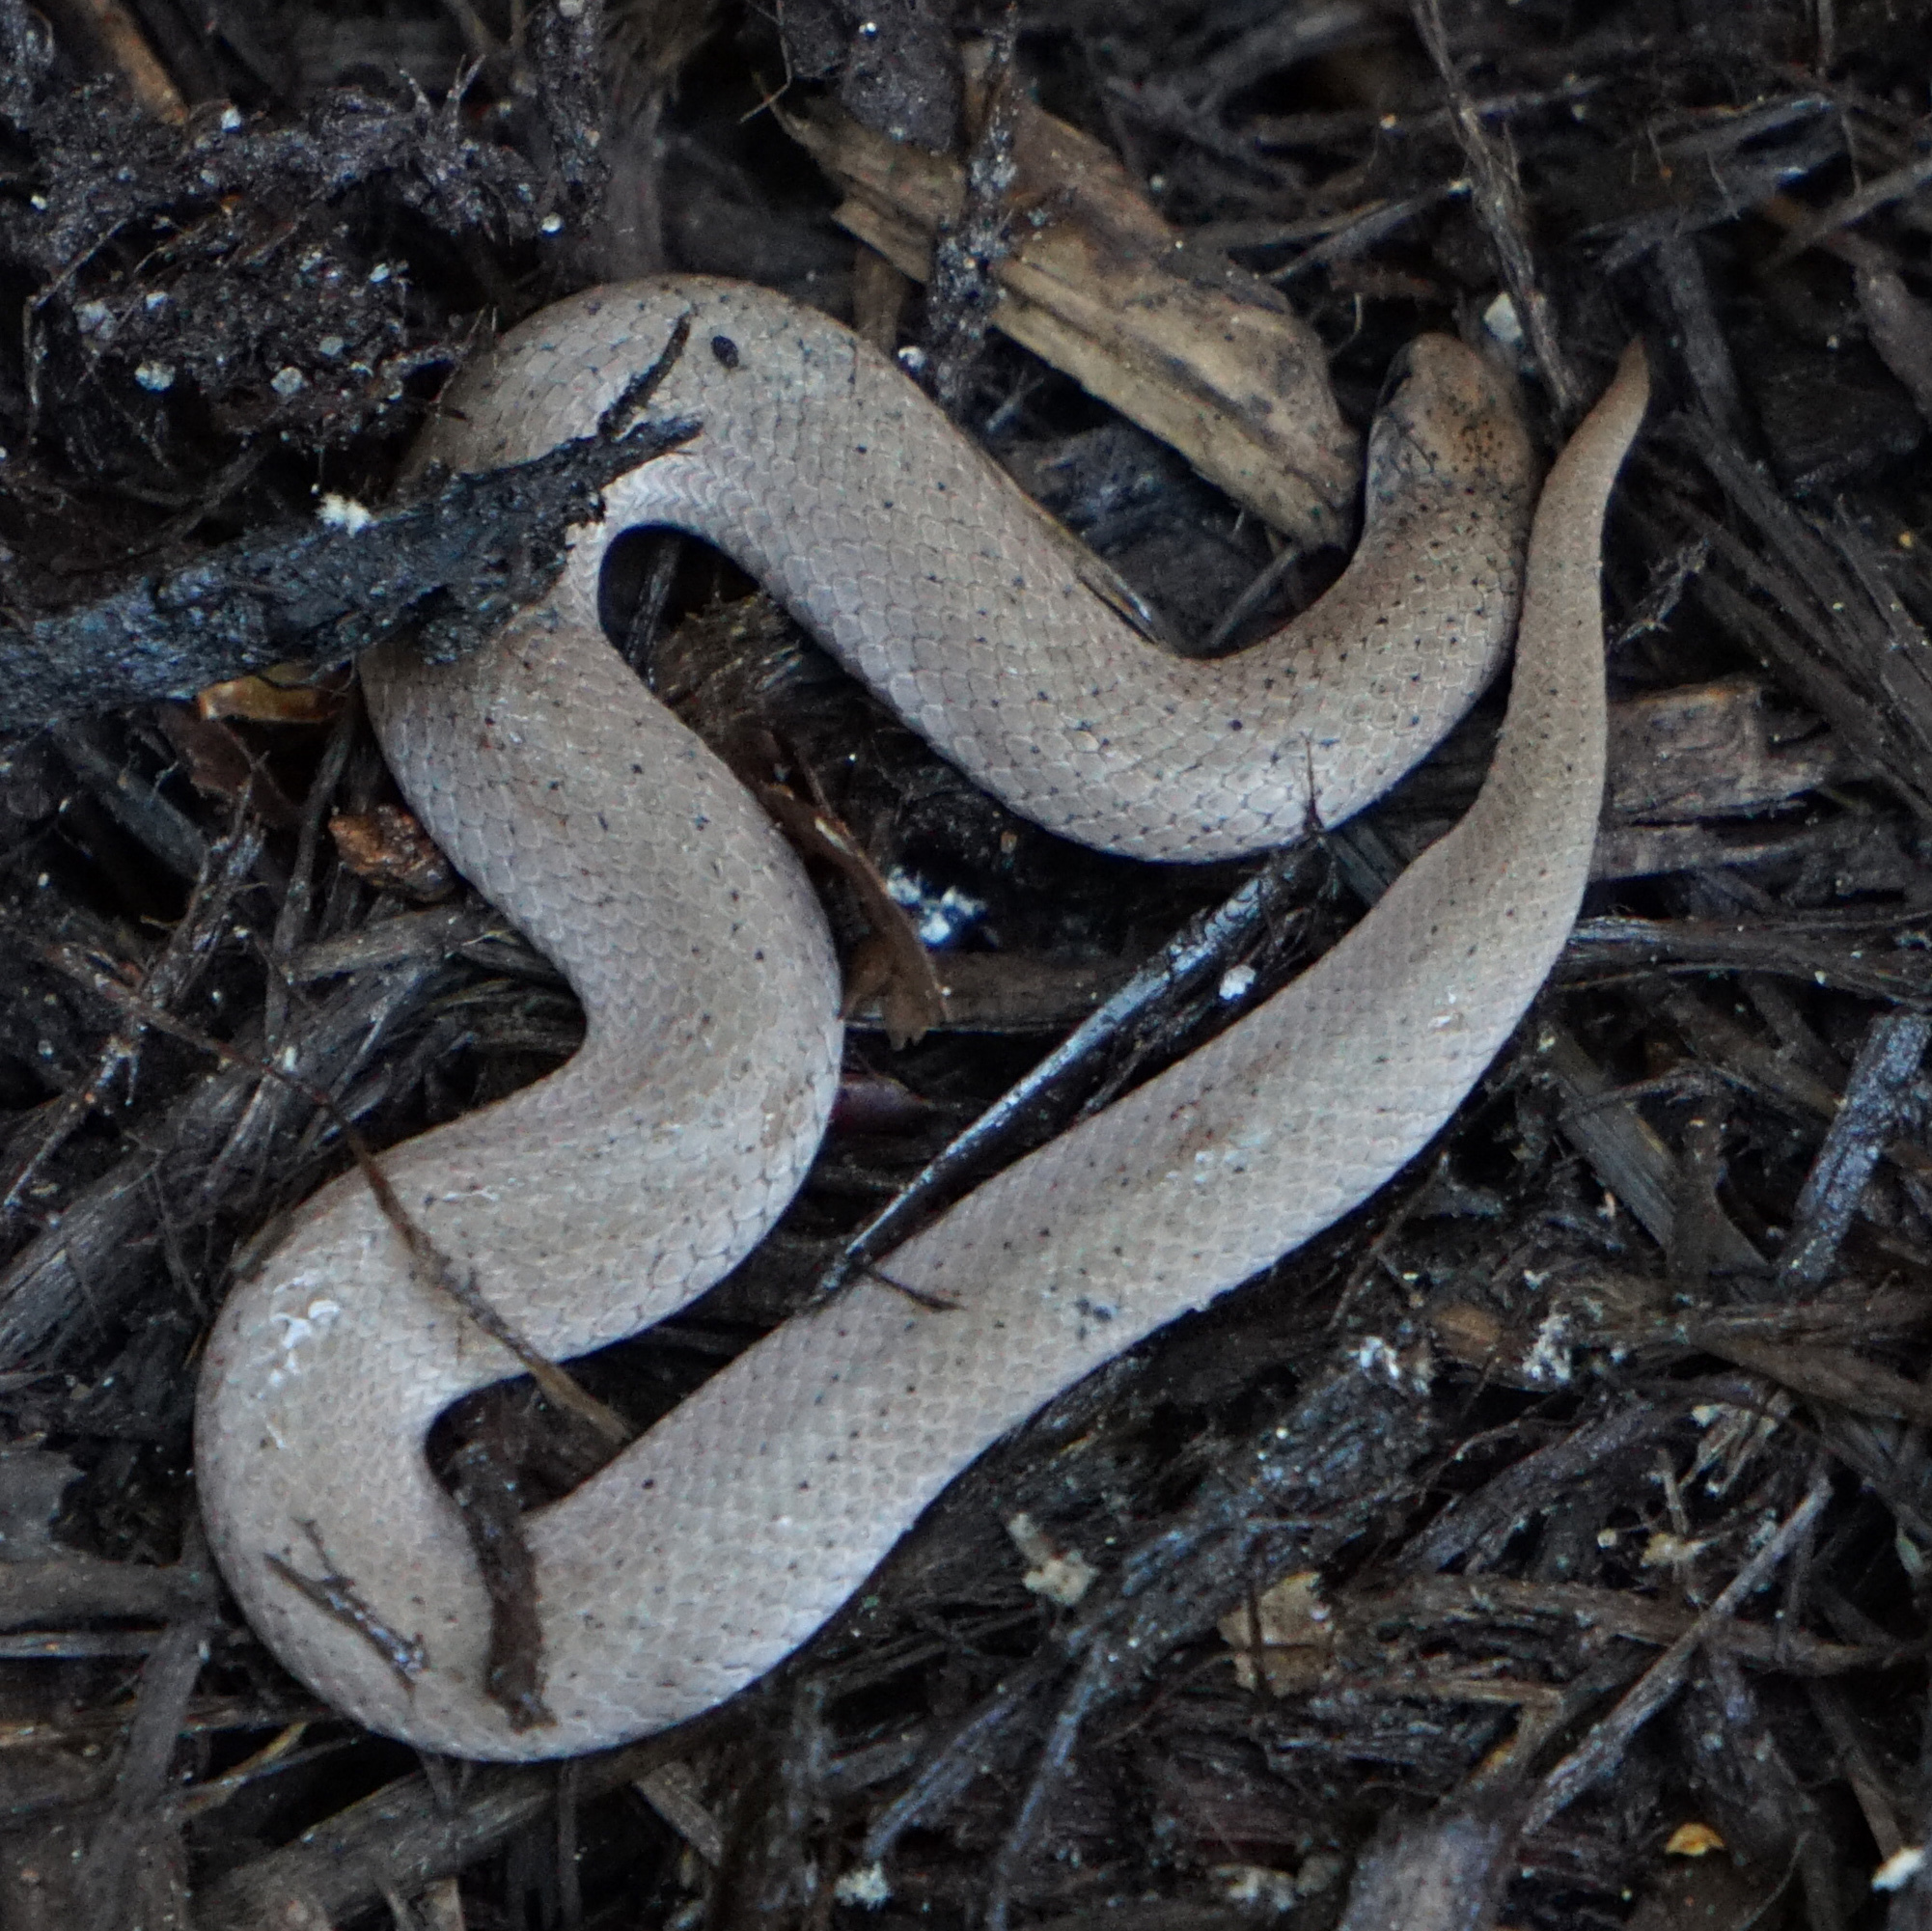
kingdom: Animalia
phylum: Chordata
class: Squamata
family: Colubridae
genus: Virginia
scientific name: Virginia valeriae
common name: Smooth earth snake
